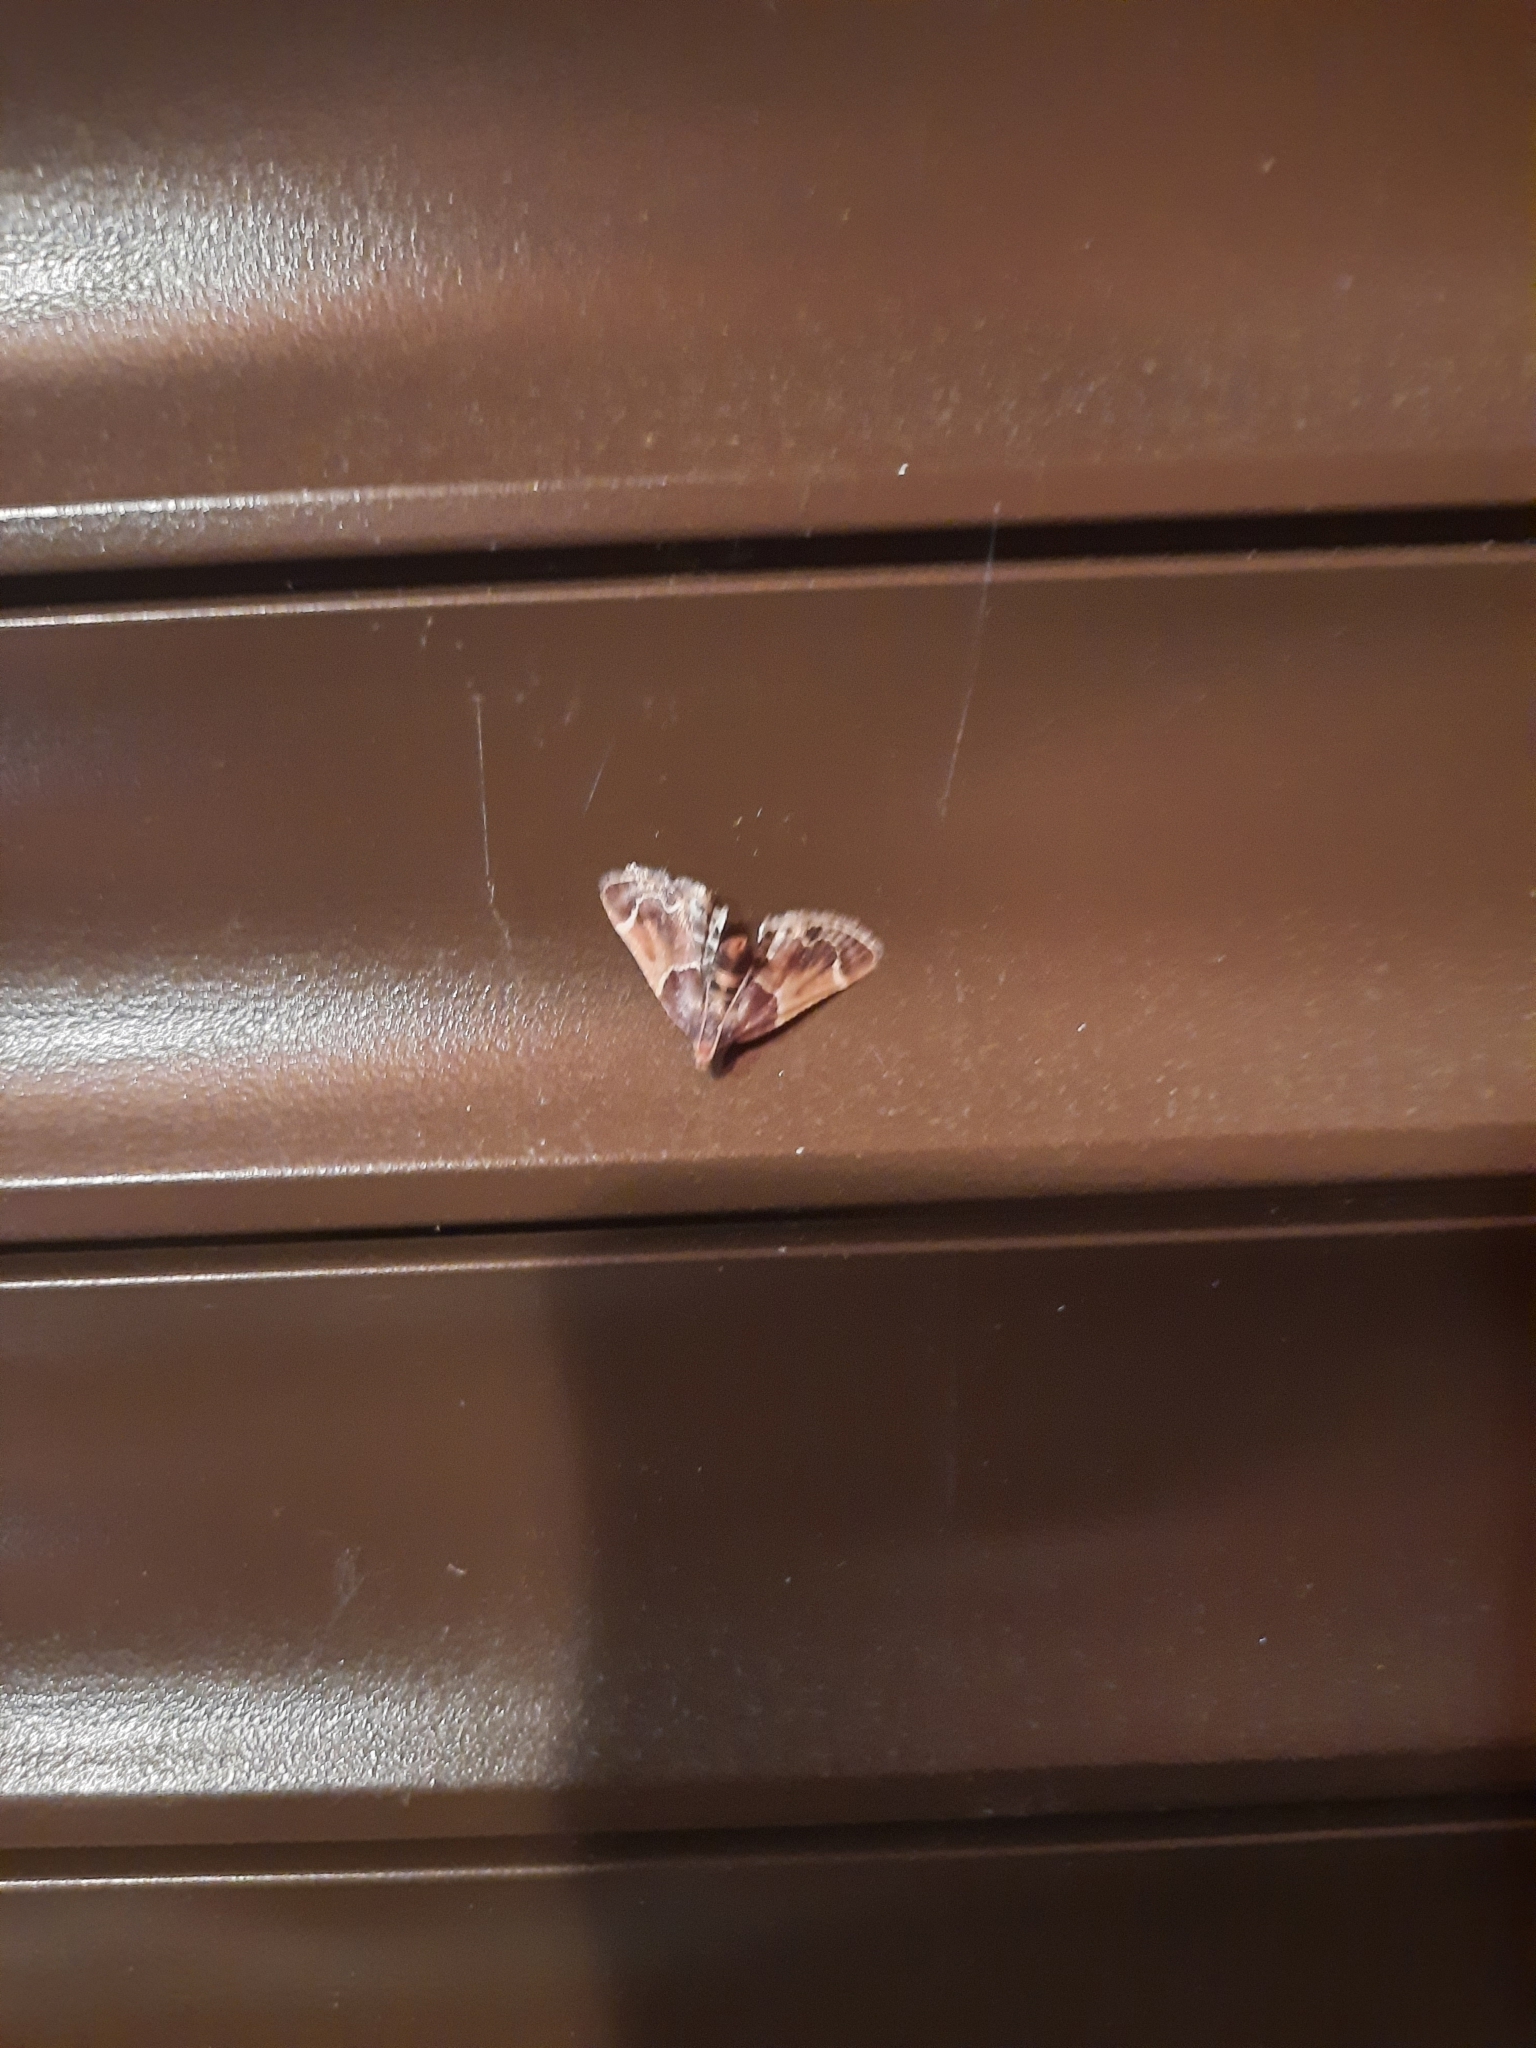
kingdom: Animalia
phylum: Arthropoda
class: Insecta
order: Lepidoptera
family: Pyralidae
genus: Pyralis
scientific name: Pyralis farinalis
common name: Meal moth
